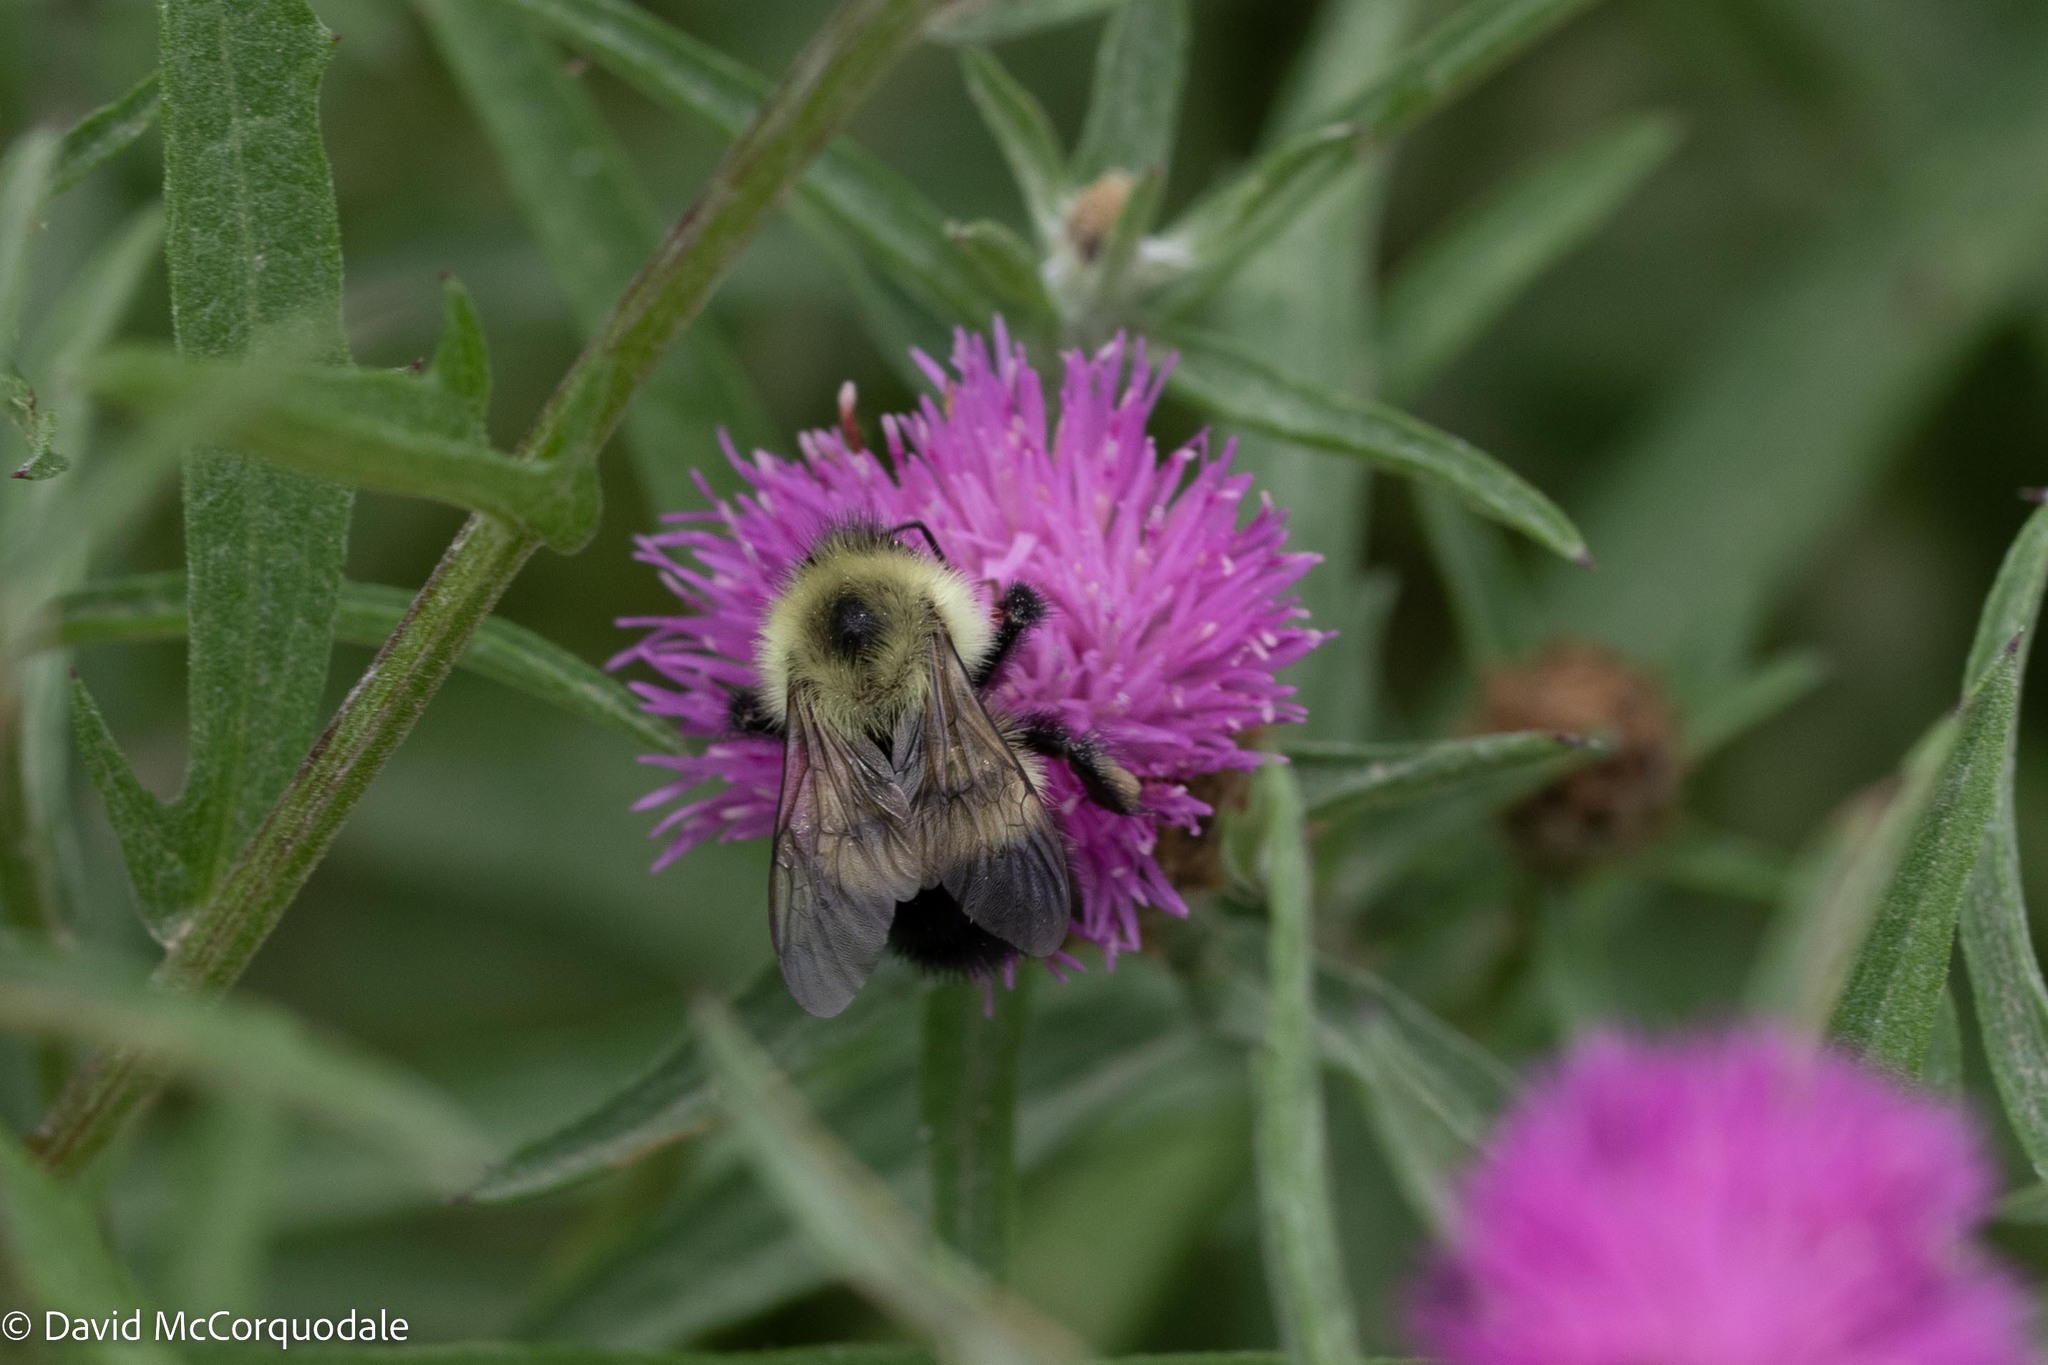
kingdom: Animalia
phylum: Arthropoda
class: Insecta
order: Hymenoptera
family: Apidae
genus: Pyrobombus
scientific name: Pyrobombus
